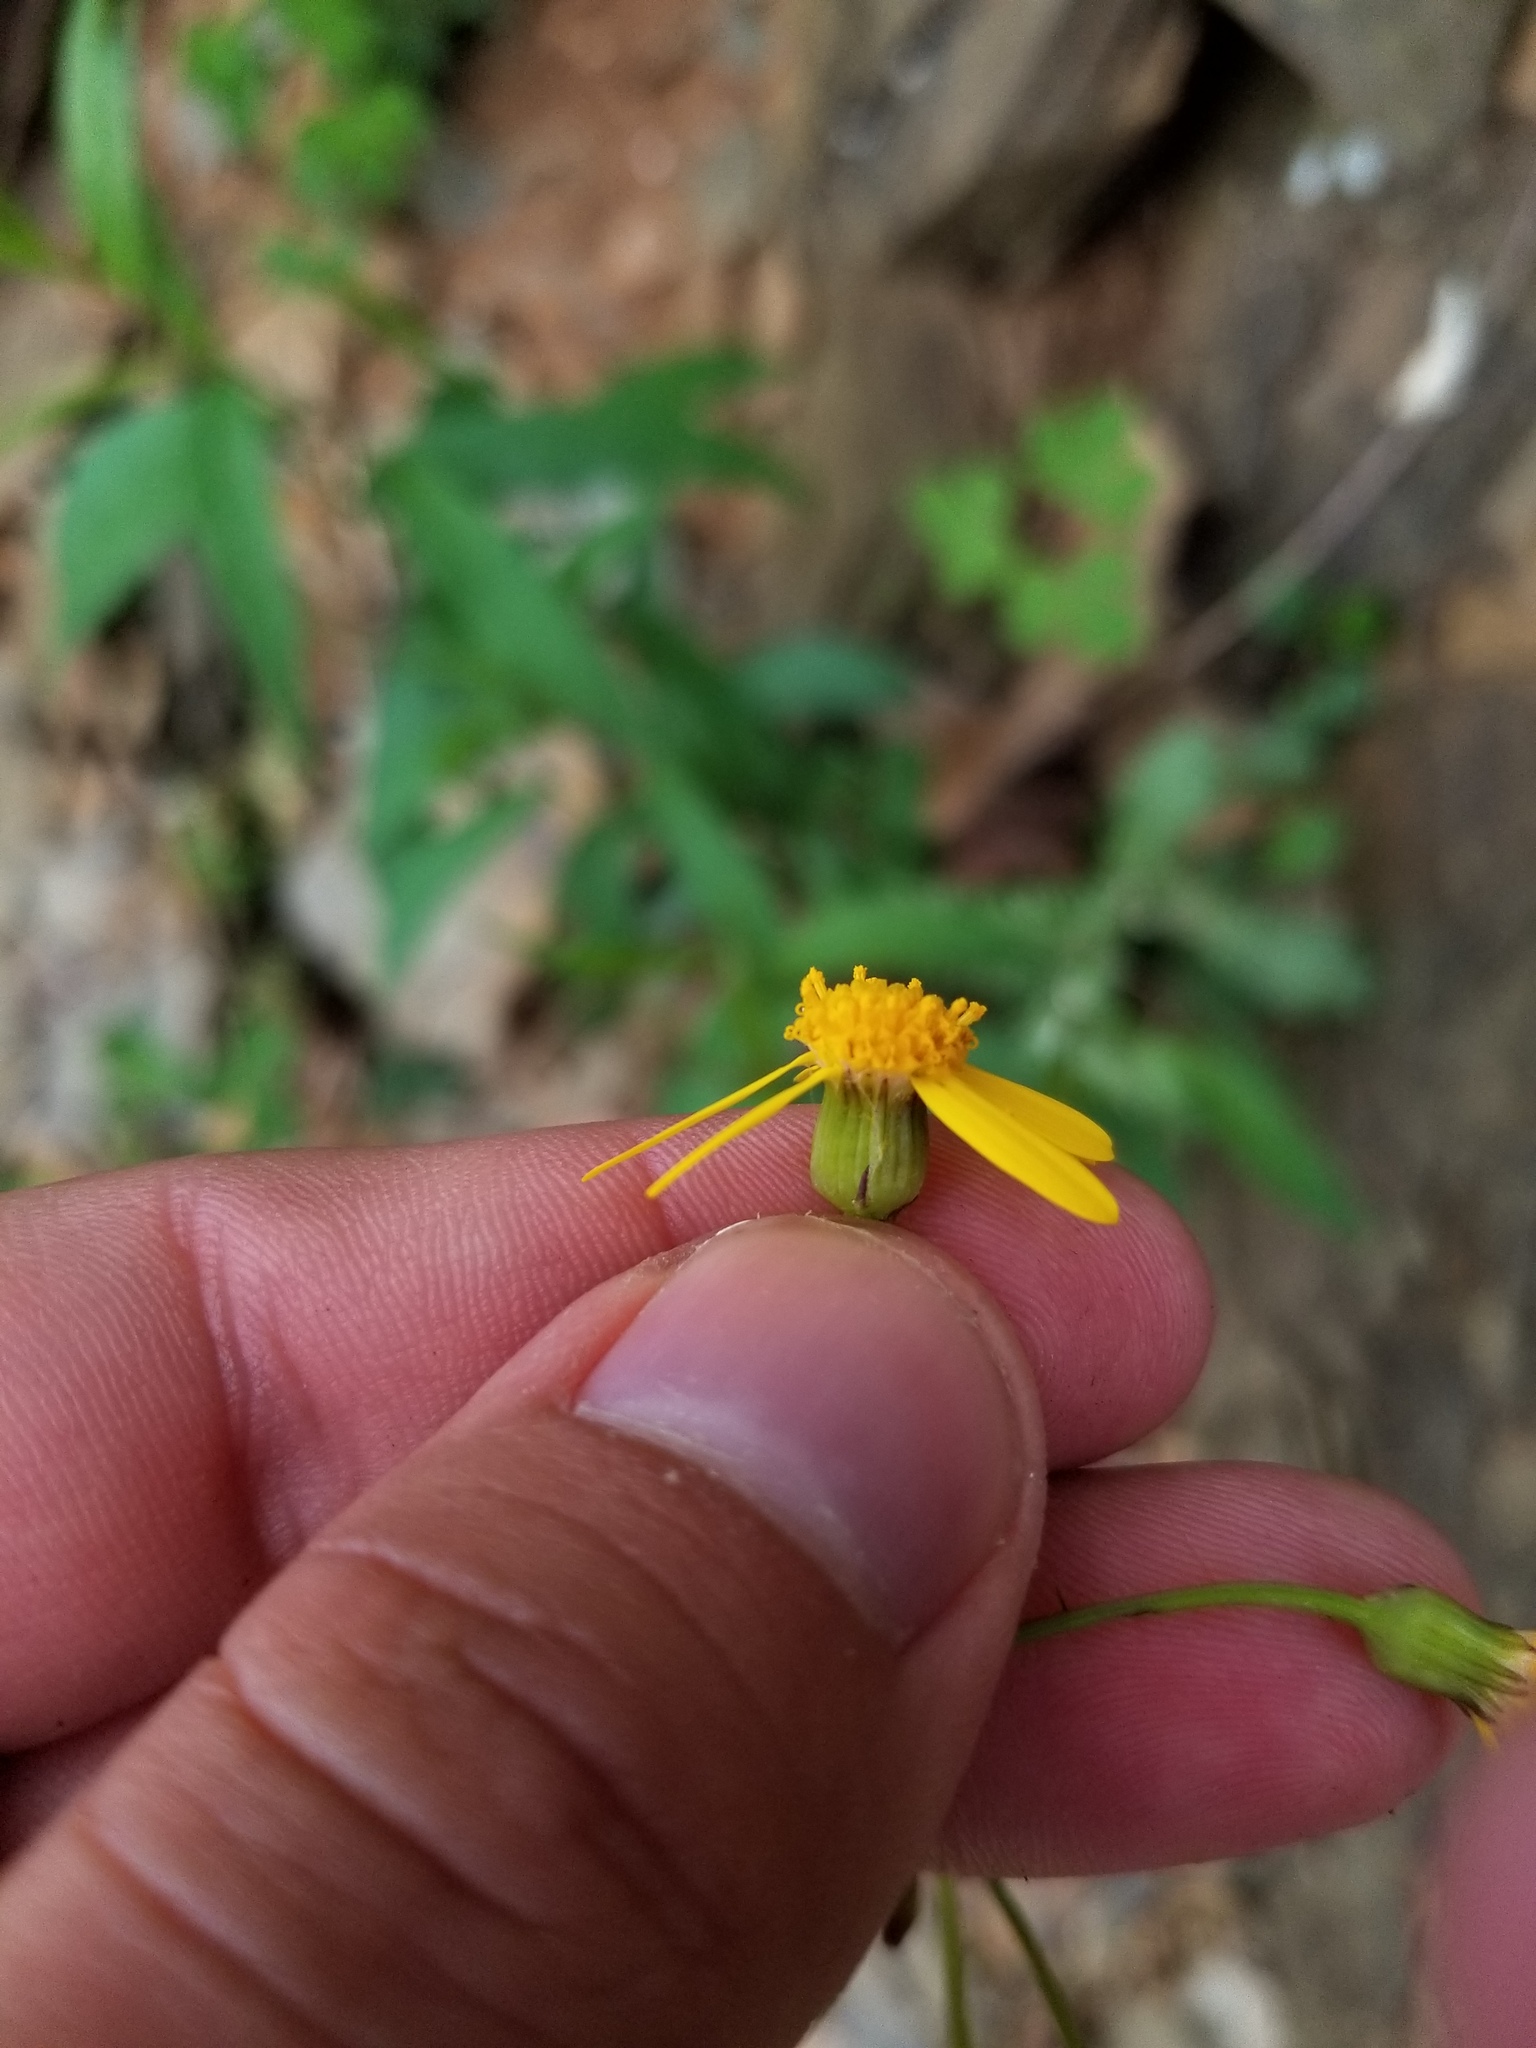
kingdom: Plantae
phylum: Tracheophyta
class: Magnoliopsida
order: Asterales
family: Asteraceae
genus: Packera
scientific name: Packera obovata
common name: Round-leaf ragwort
